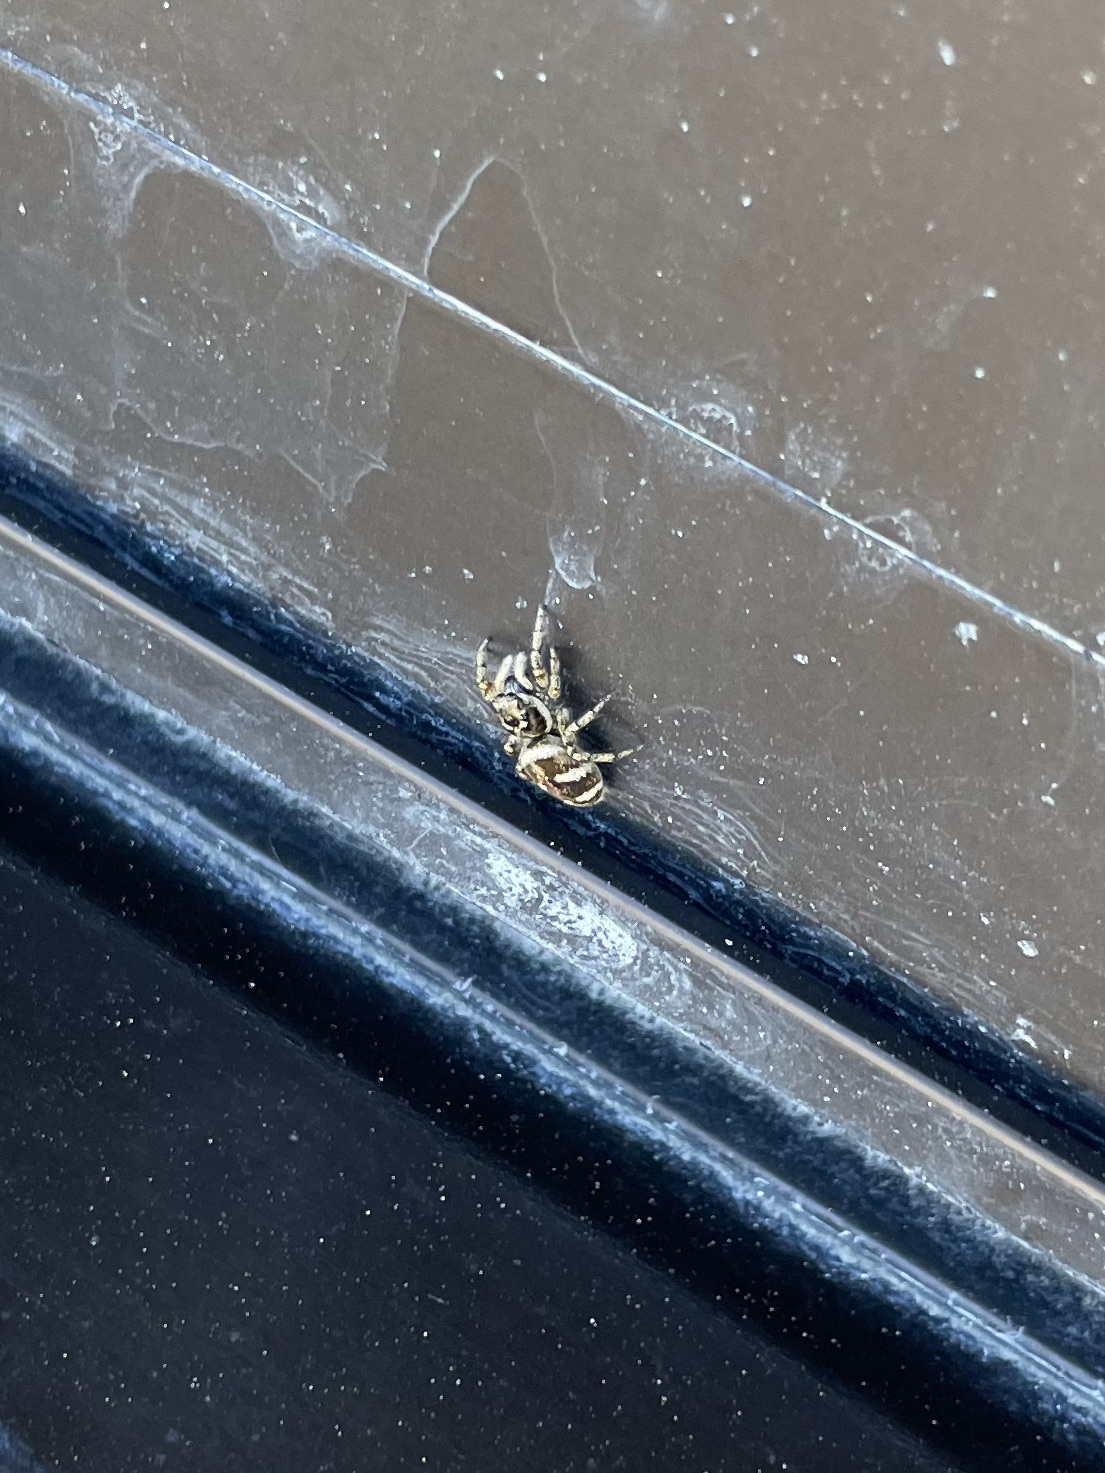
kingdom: Animalia
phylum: Arthropoda
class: Arachnida
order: Araneae
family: Salticidae
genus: Salticus
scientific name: Salticus scenicus
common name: Zebra jumper
